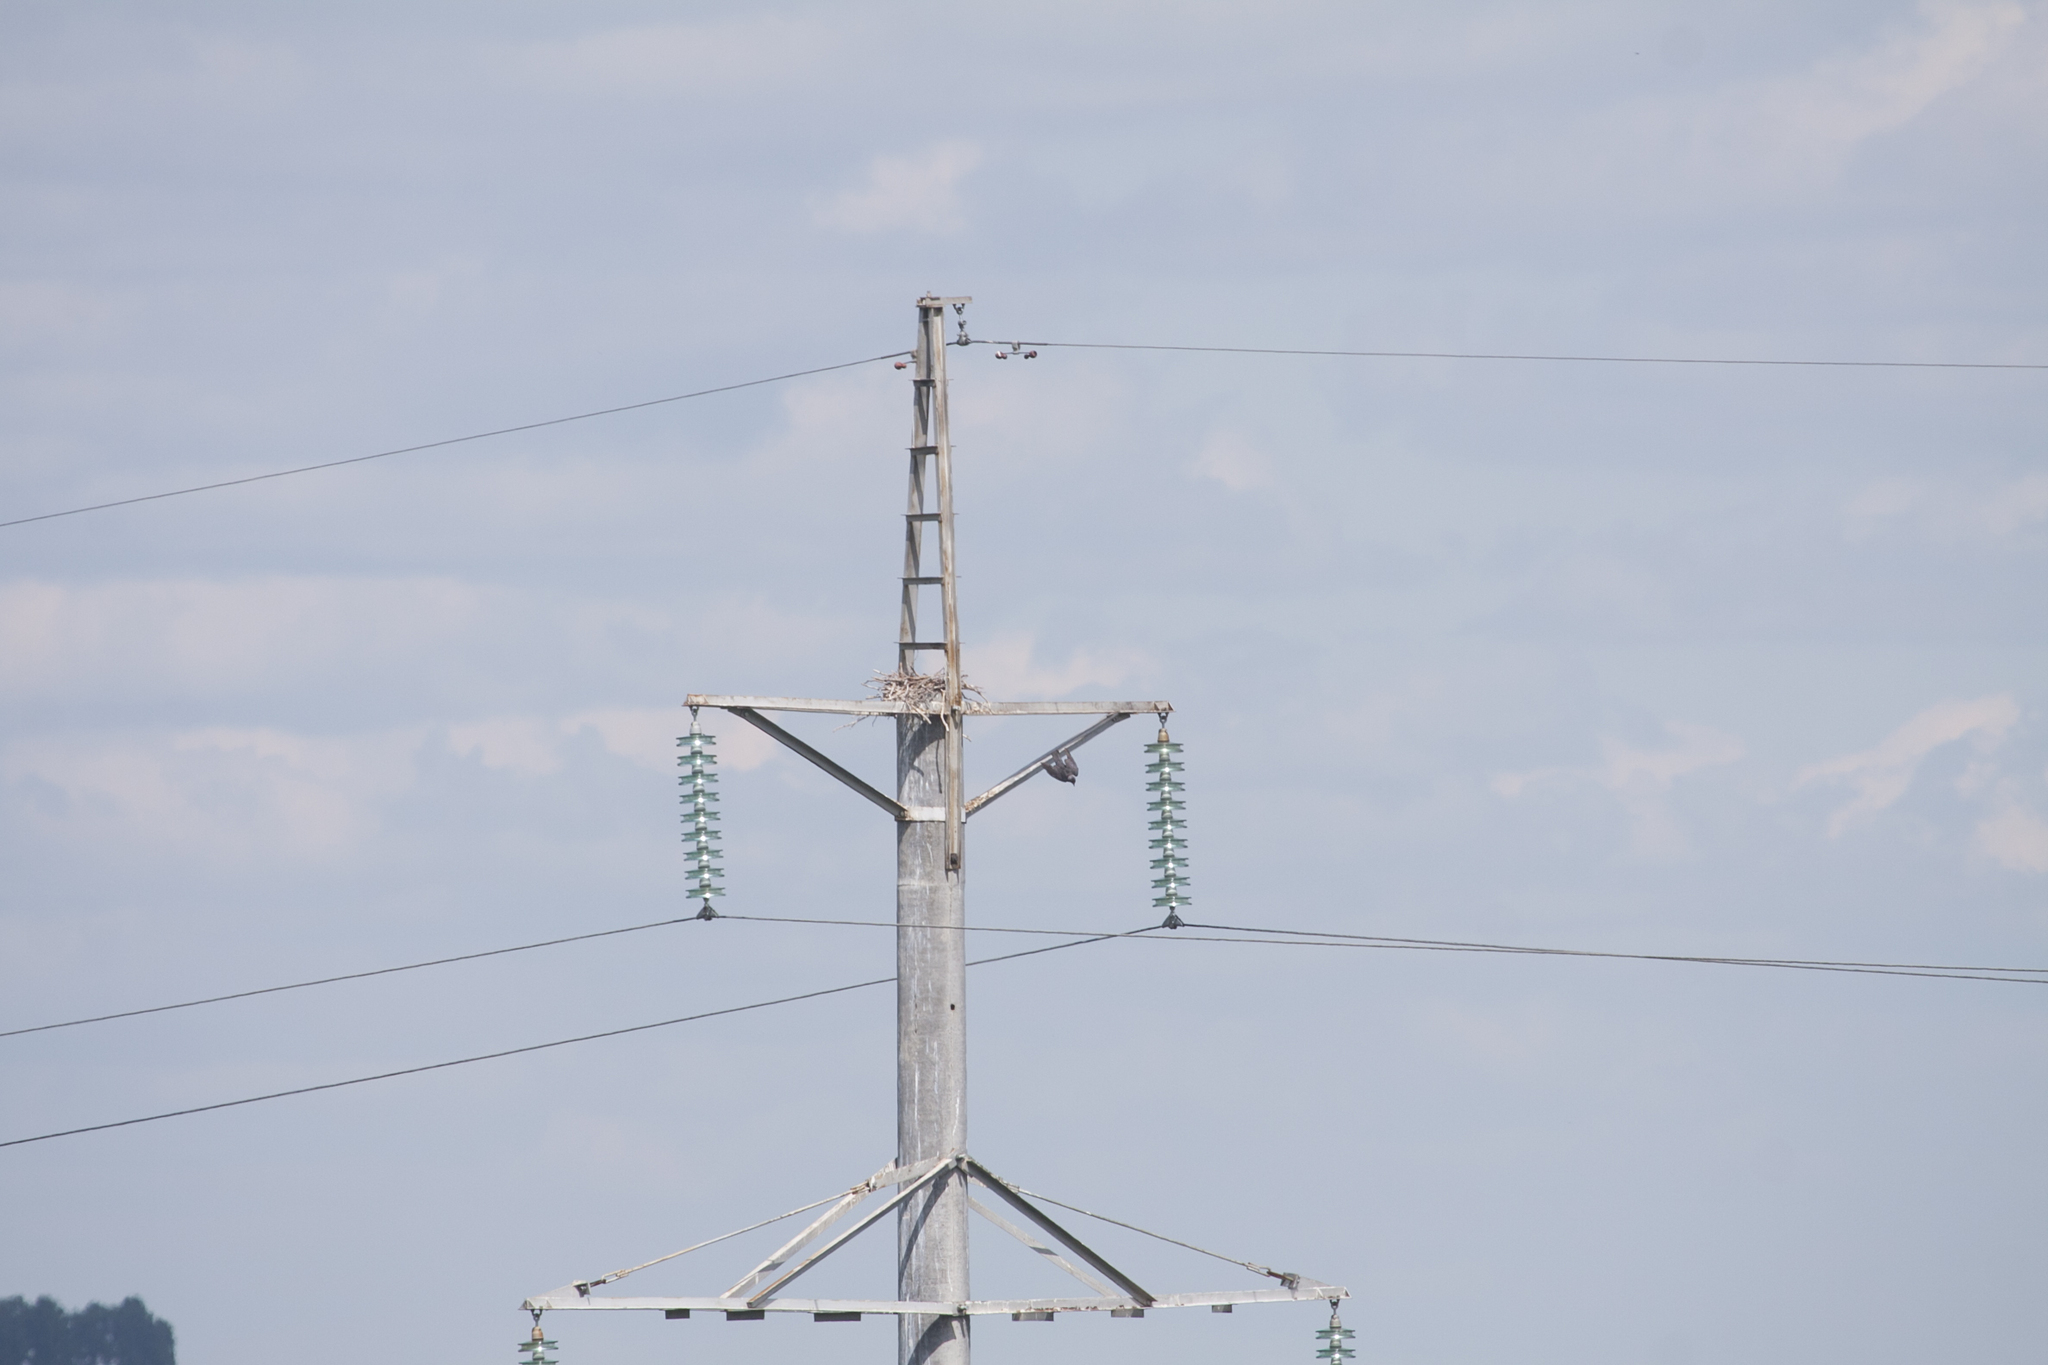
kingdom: Animalia
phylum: Chordata
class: Aves
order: Passeriformes
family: Corvidae
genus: Coloeus
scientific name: Coloeus monedula
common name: Western jackdaw
